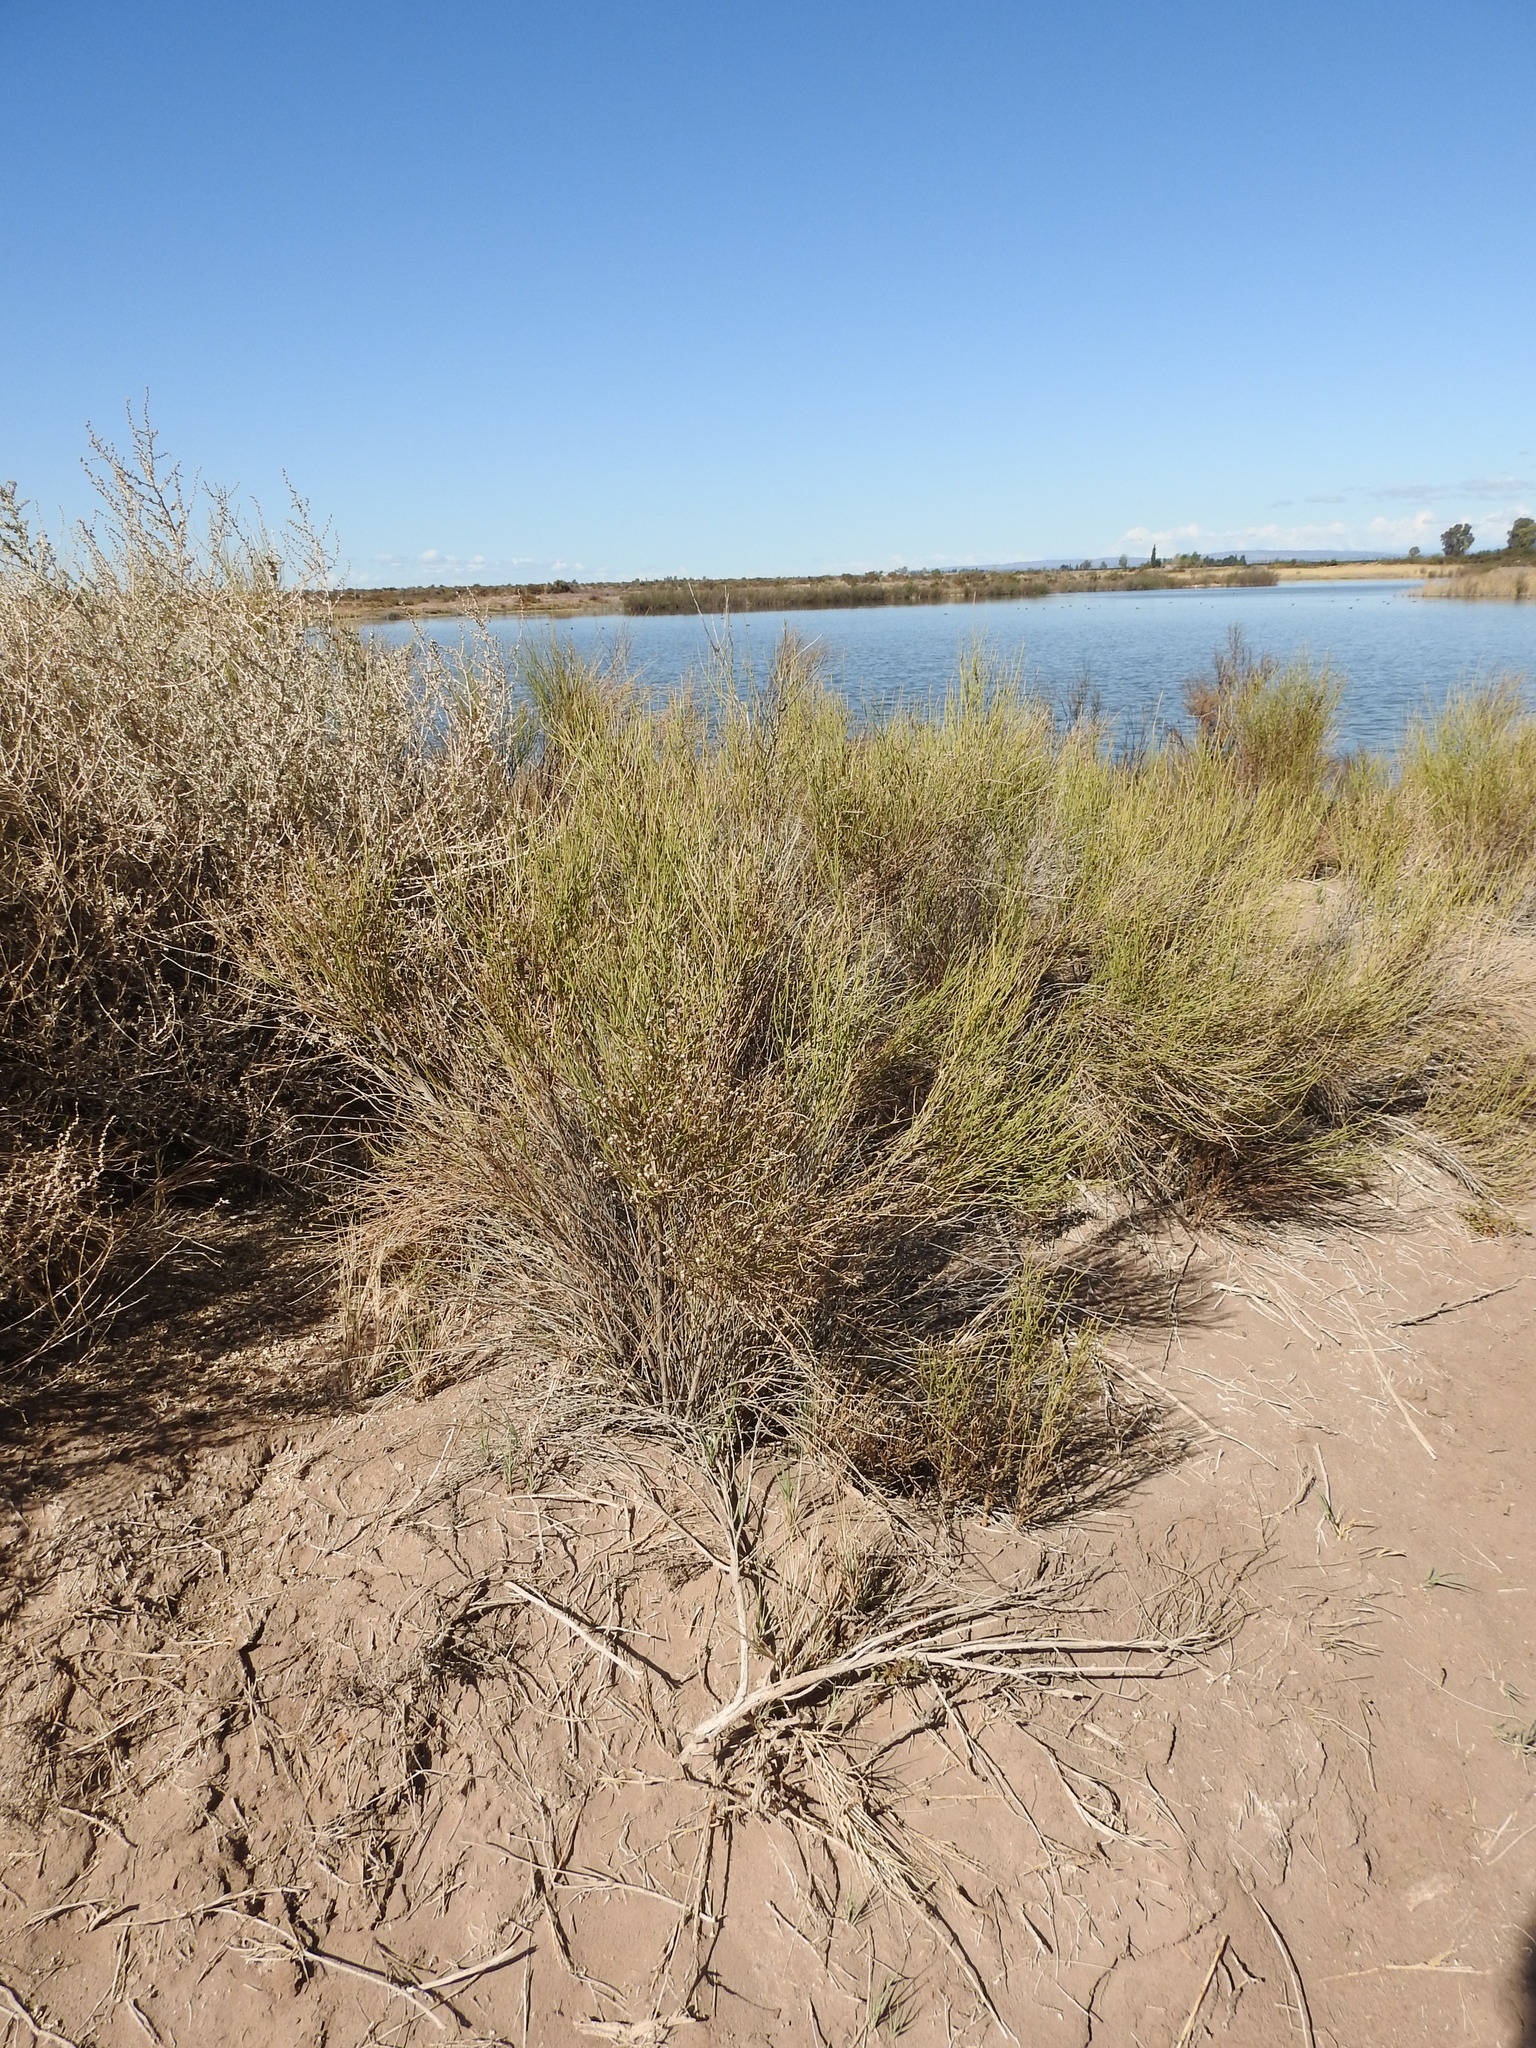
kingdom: Plantae
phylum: Tracheophyta
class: Magnoliopsida
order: Asterales
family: Asteraceae
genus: Pseudobaccharis
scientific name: Pseudobaccharis retamoides
